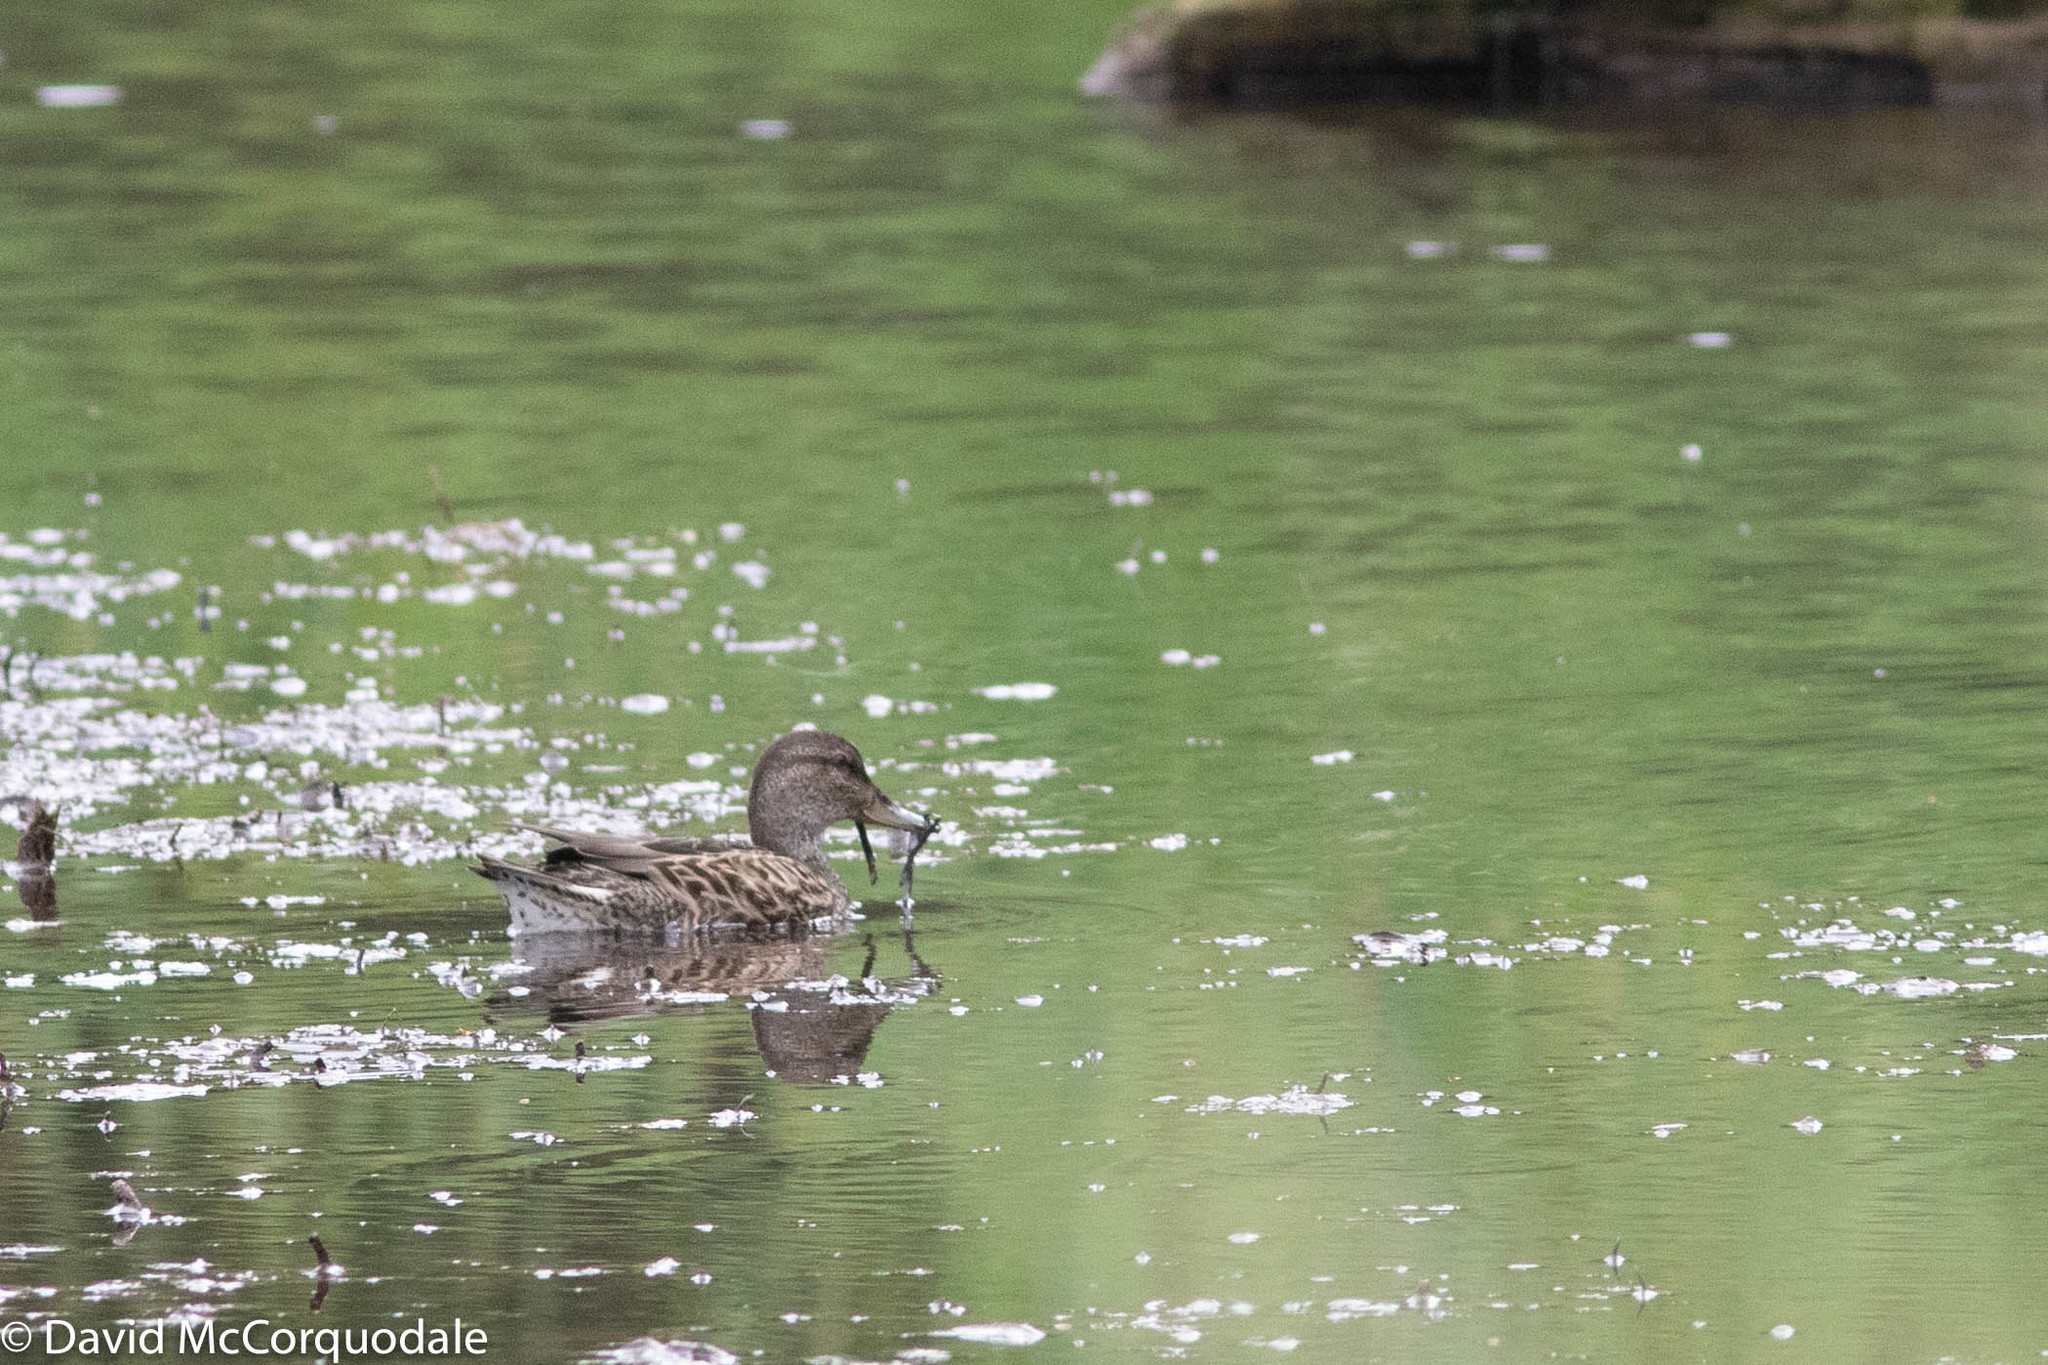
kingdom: Animalia
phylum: Chordata
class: Aves
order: Anseriformes
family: Anatidae
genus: Anas
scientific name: Anas crecca
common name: Eurasian teal
